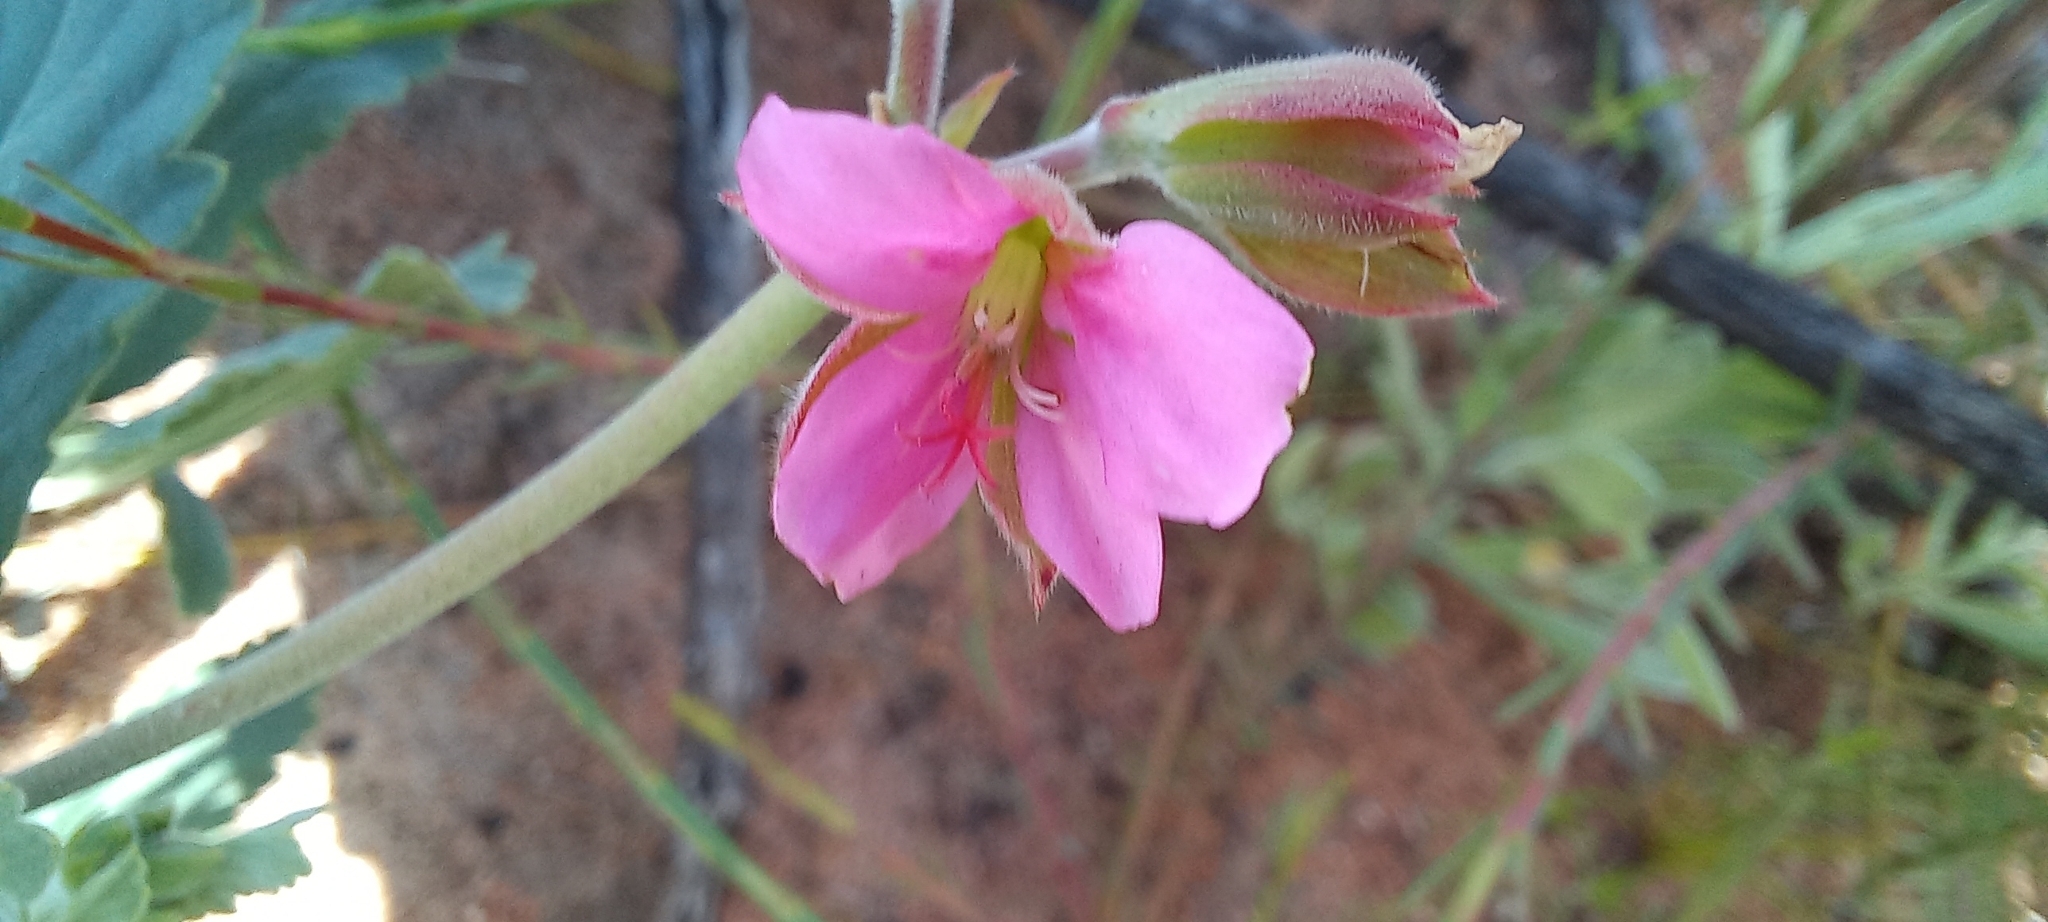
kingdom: Plantae
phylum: Tracheophyta
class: Magnoliopsida
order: Geraniales
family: Geraniaceae
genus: Pelargonium
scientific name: Pelargonium oenothera
